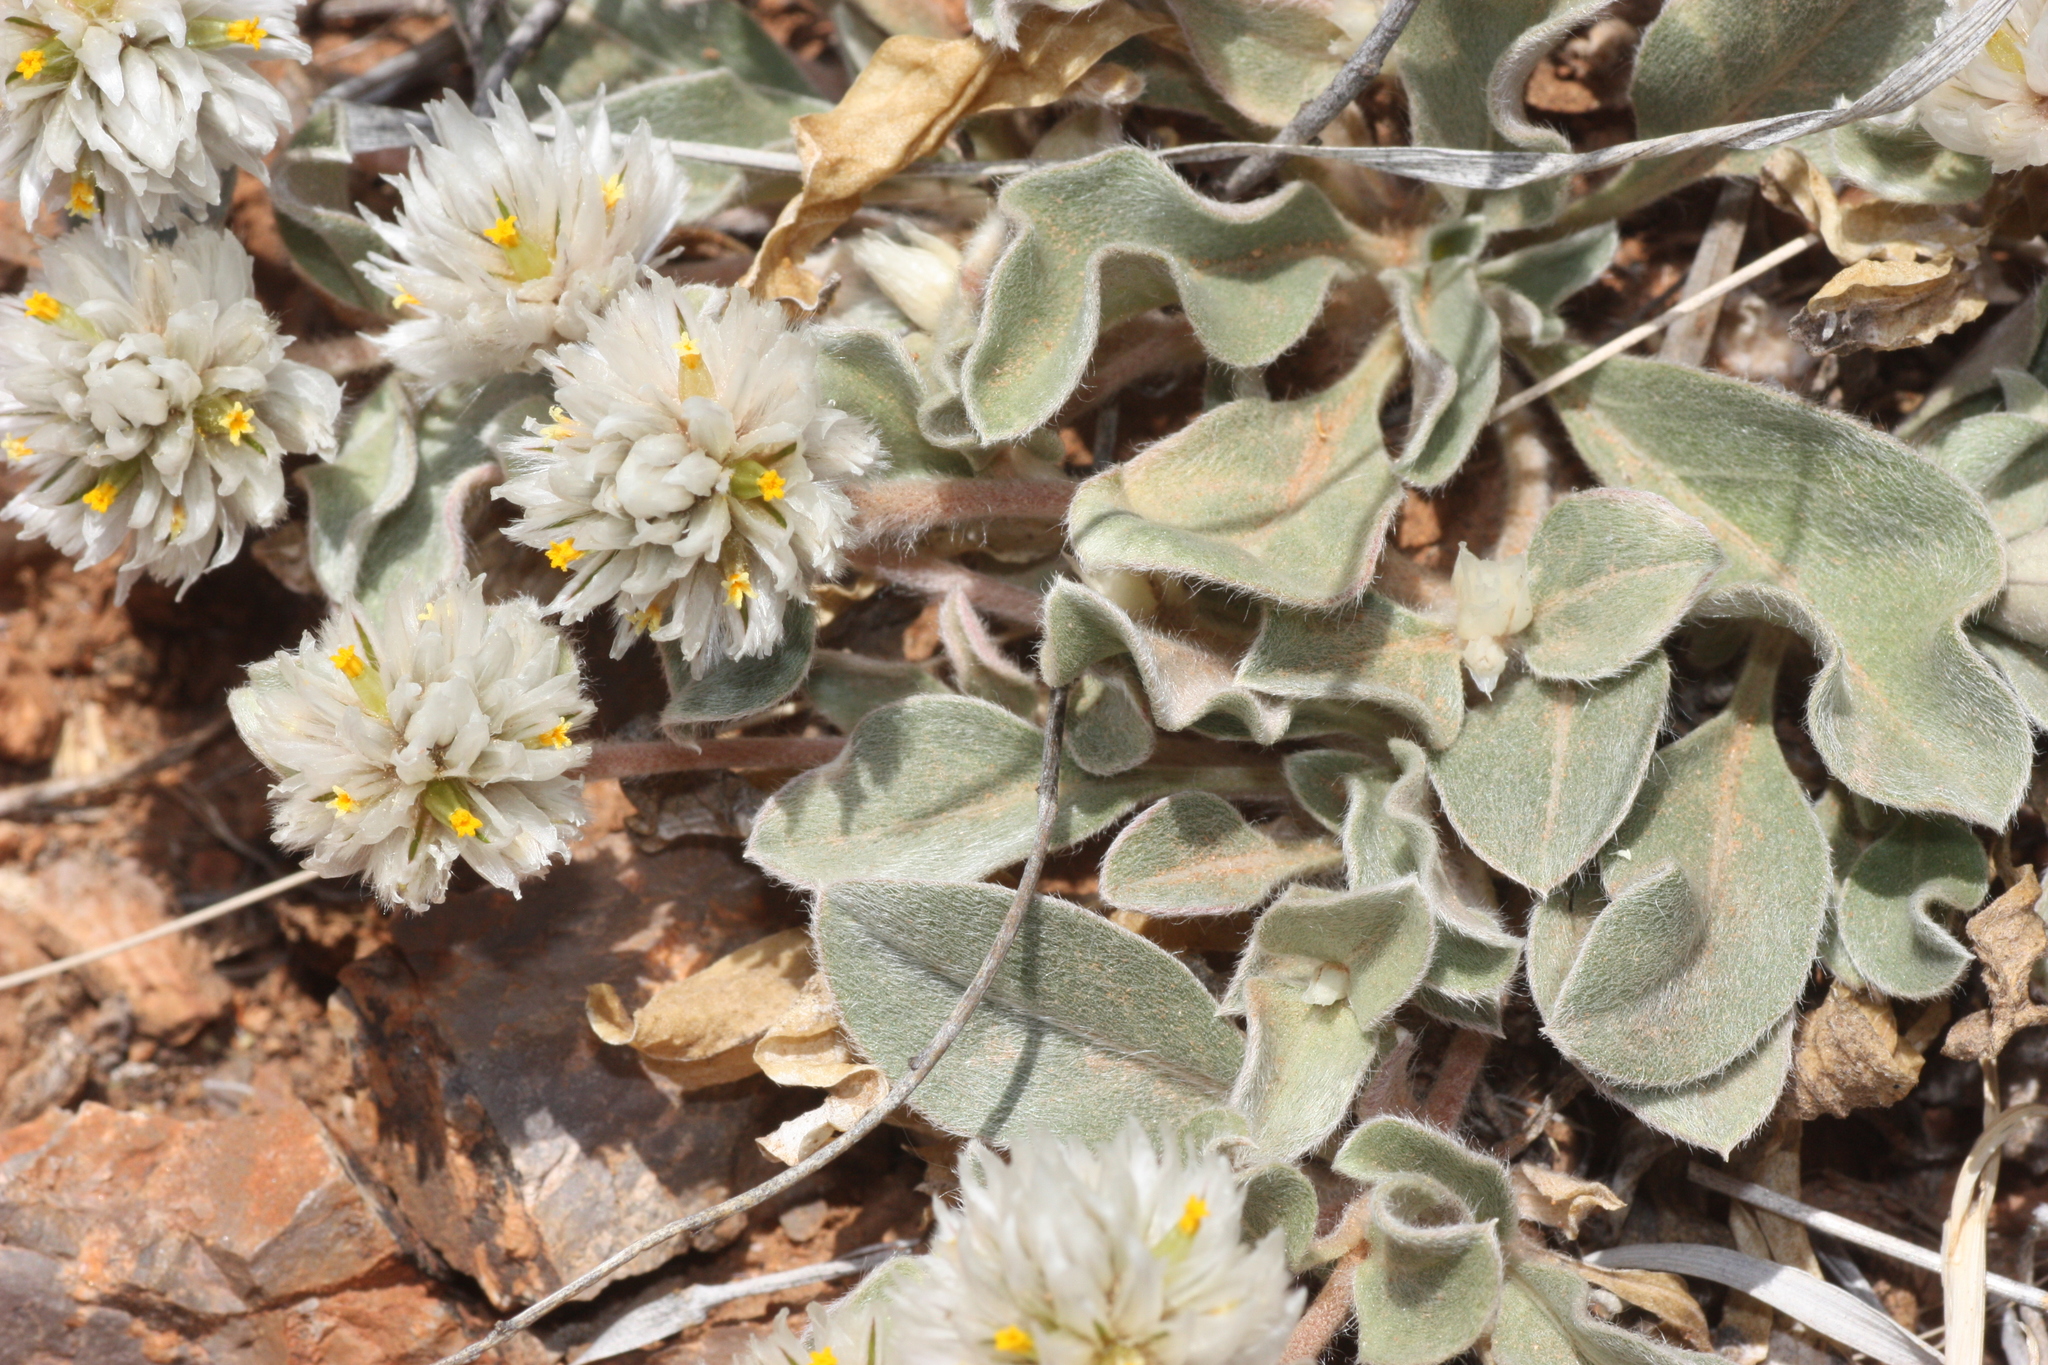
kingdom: Plantae
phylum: Tracheophyta
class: Magnoliopsida
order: Caryophyllales
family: Amaranthaceae
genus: Gomphrena
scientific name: Gomphrena caespitosa
